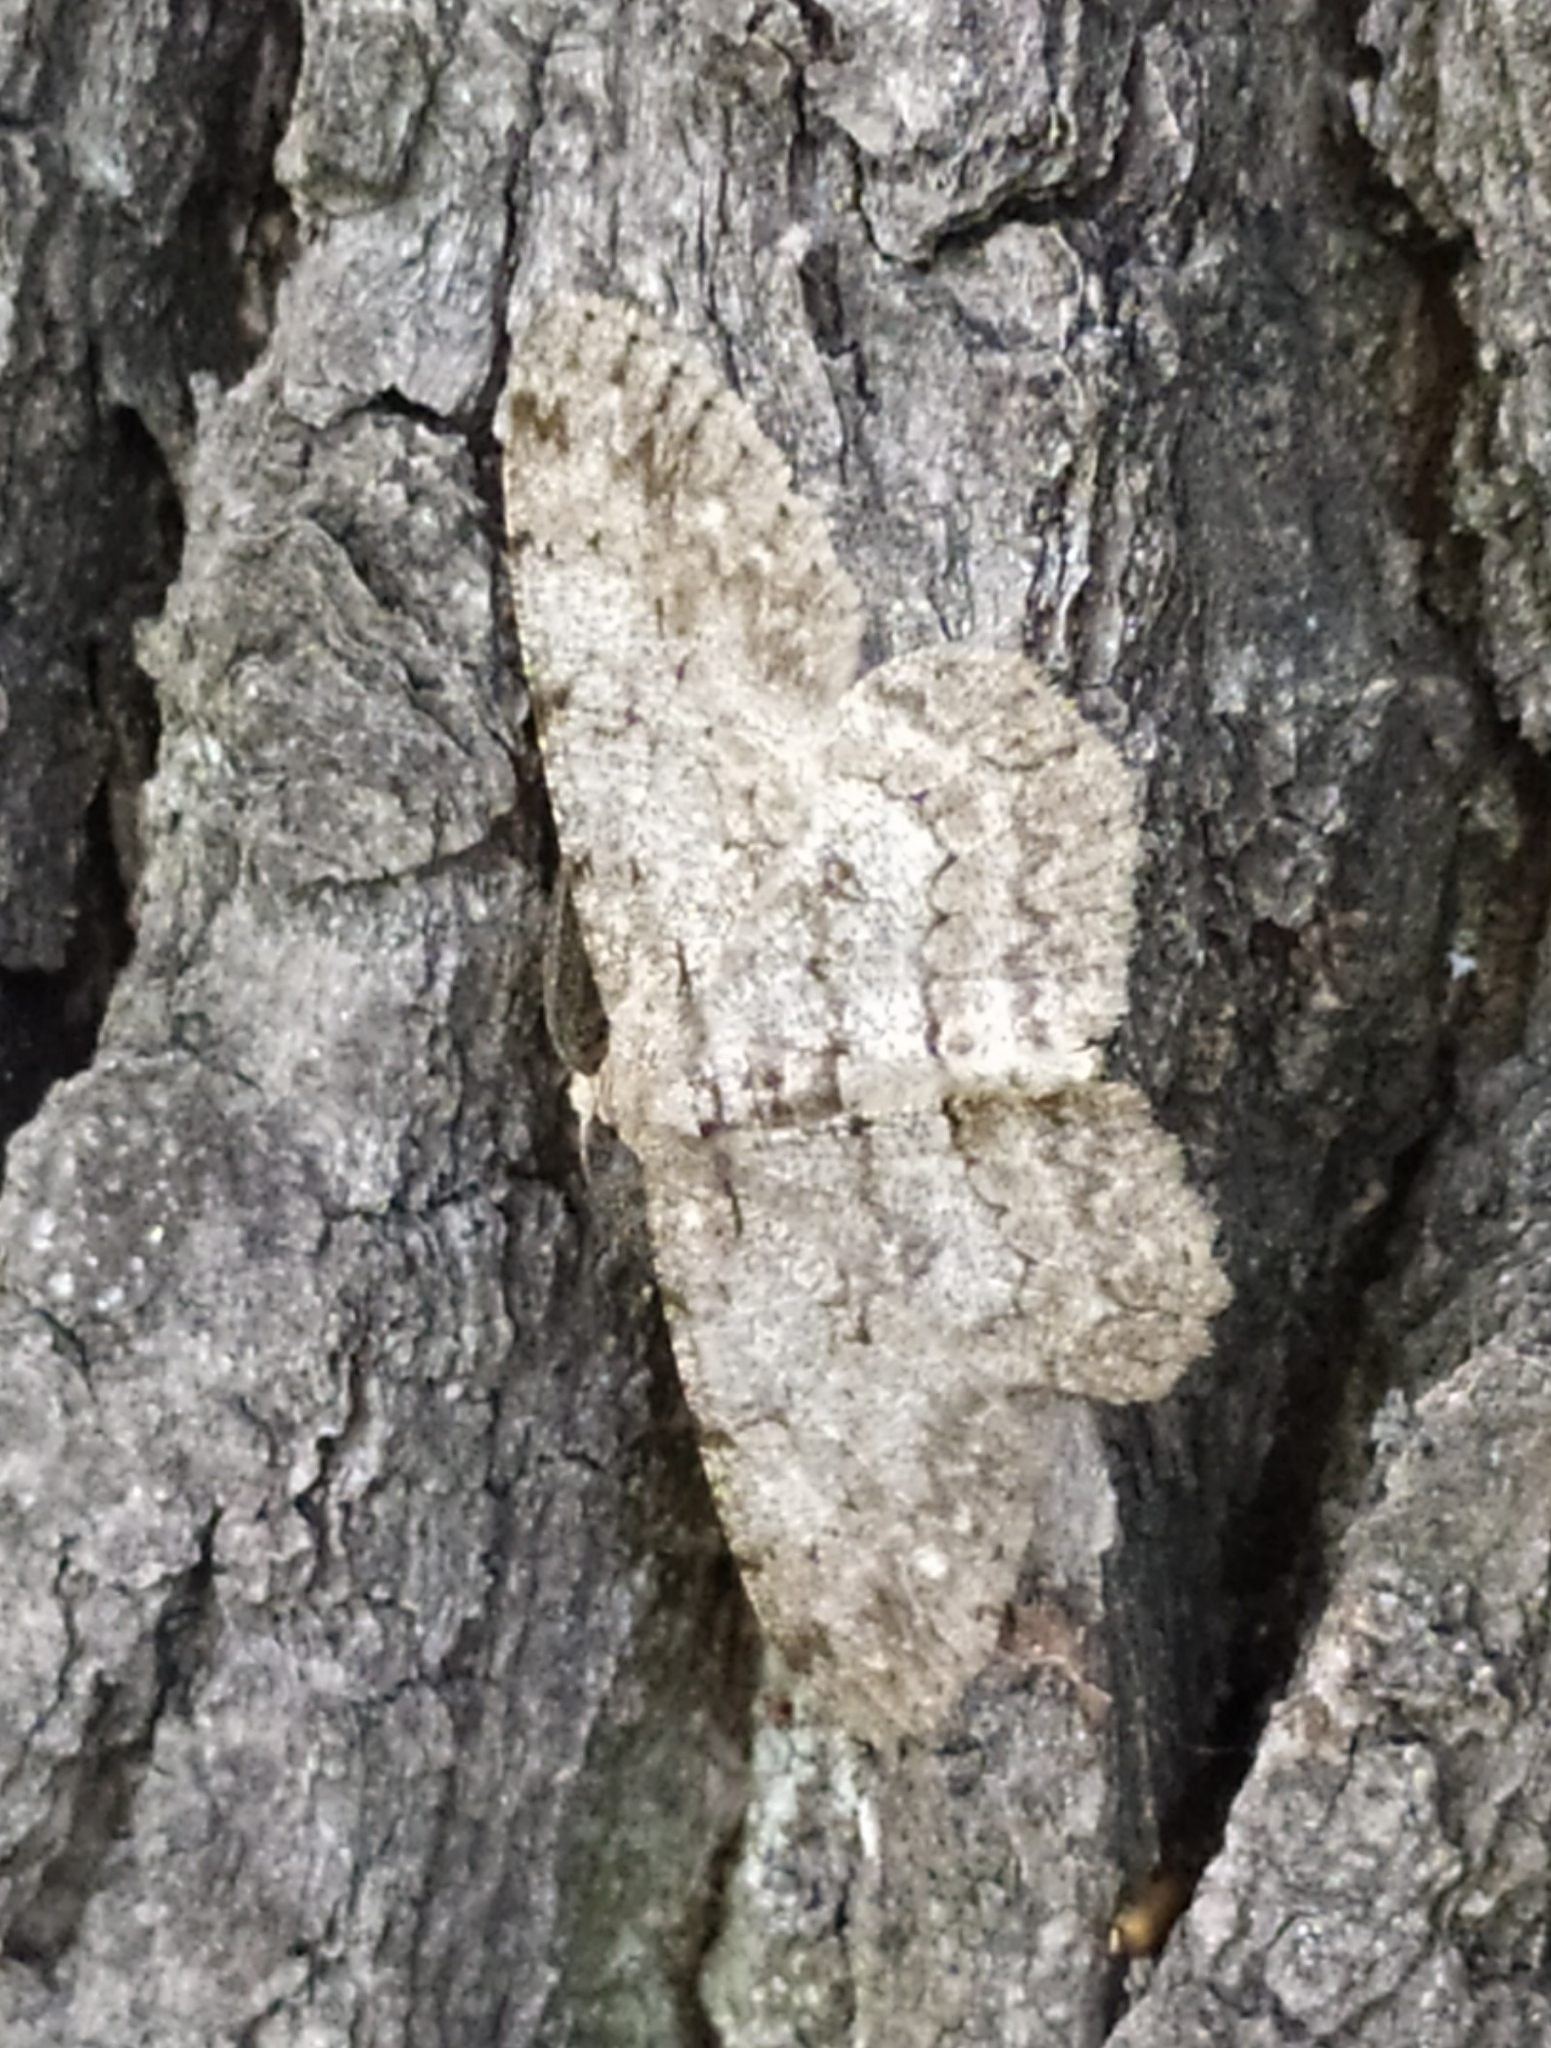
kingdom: Animalia
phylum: Arthropoda
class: Insecta
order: Lepidoptera
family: Geometridae
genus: Hypomecis
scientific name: Hypomecis punctinalis
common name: Pale oak beauty
